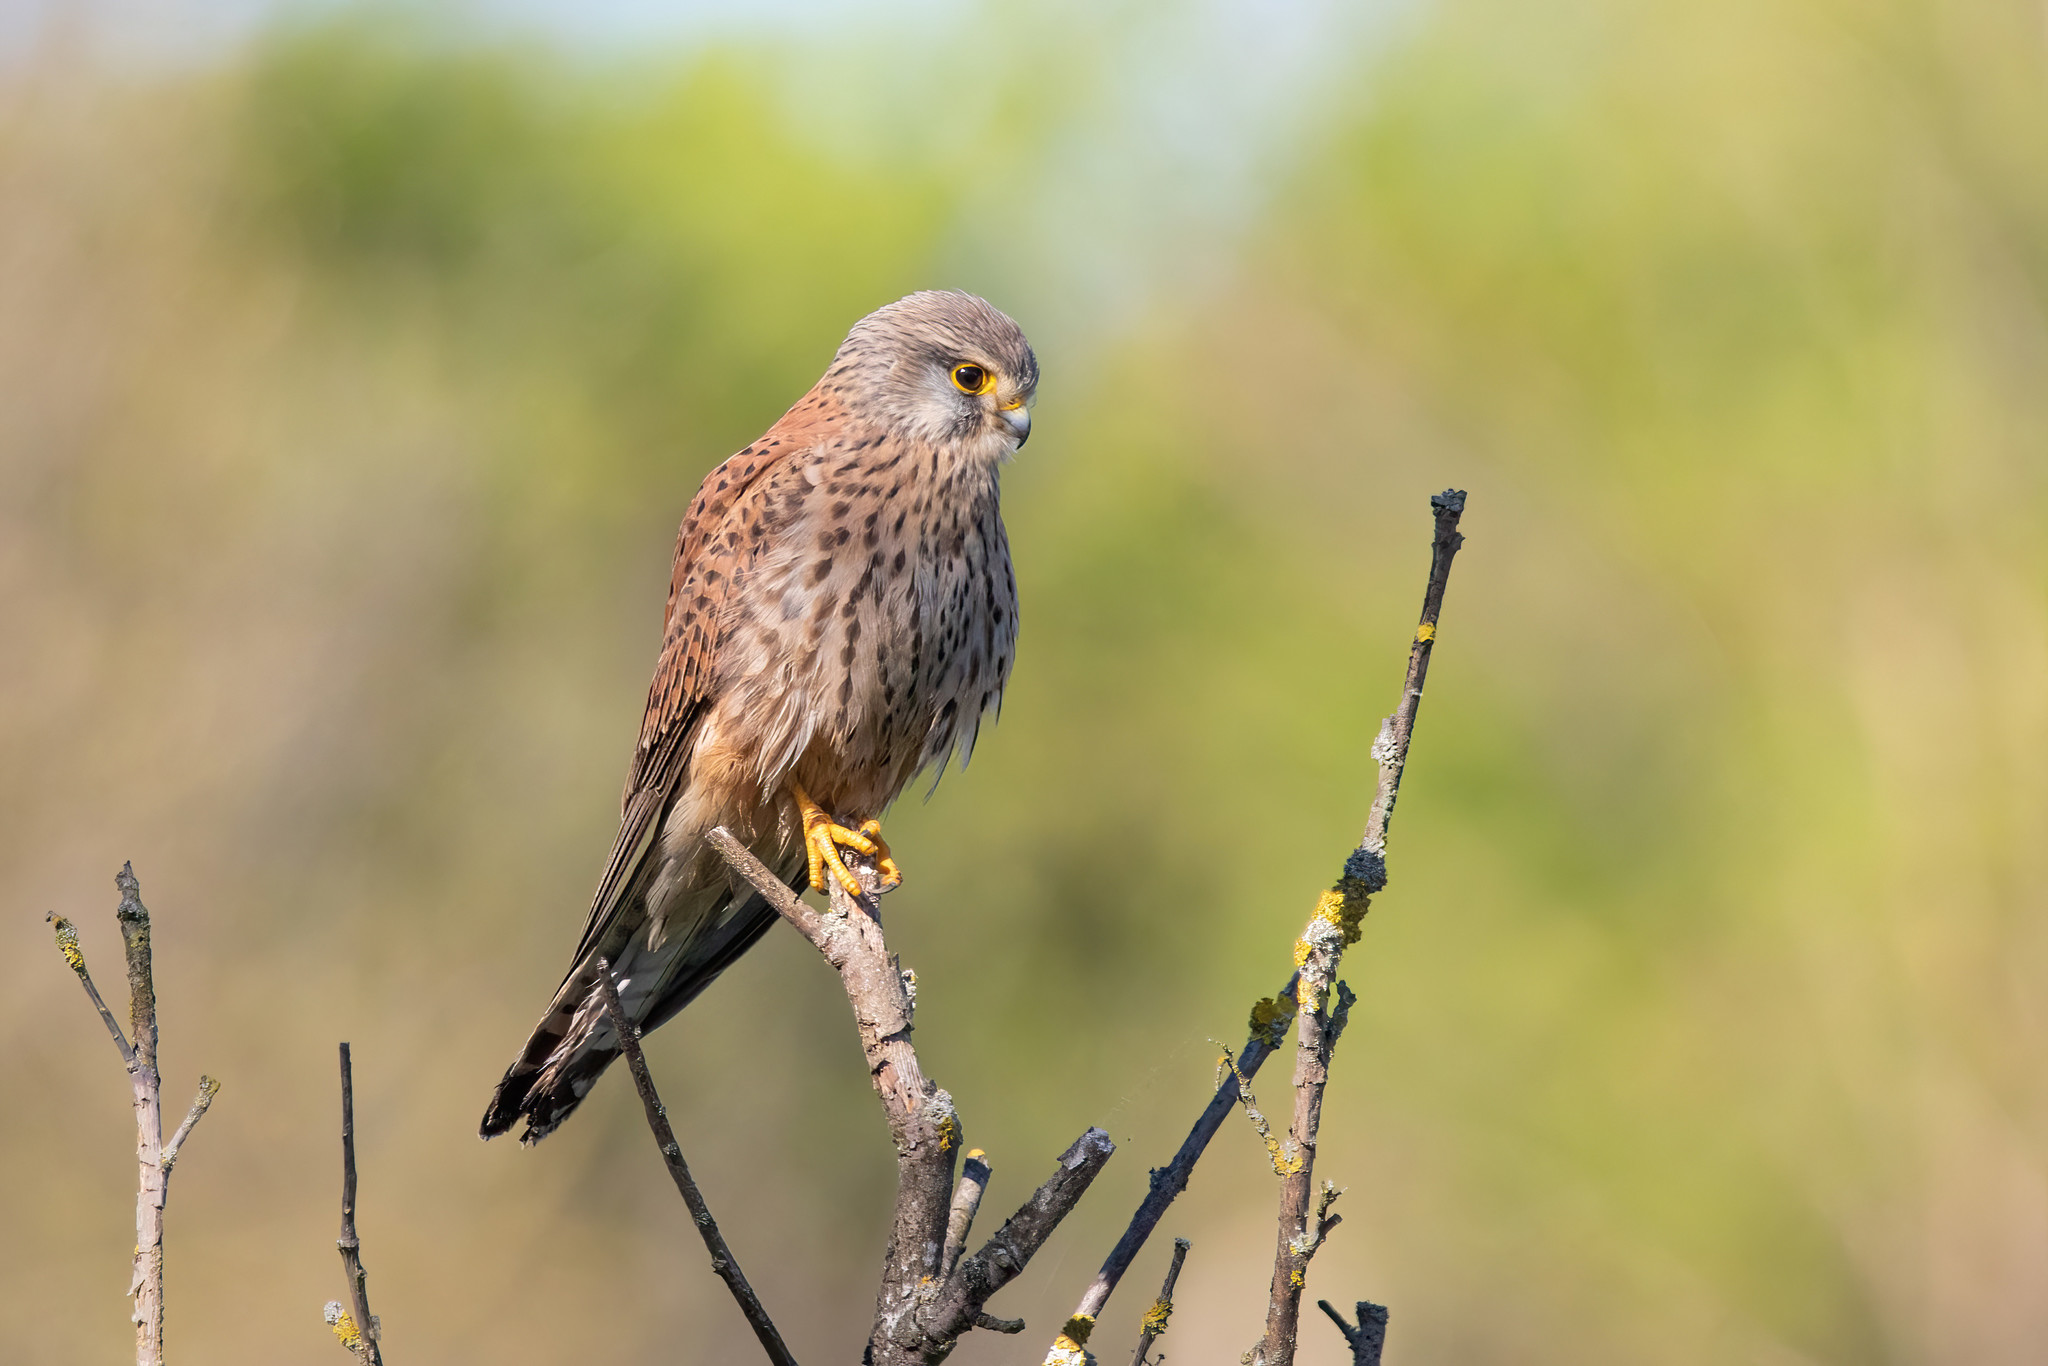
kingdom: Animalia
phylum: Chordata
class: Aves
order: Falconiformes
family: Falconidae
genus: Falco
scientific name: Falco tinnunculus
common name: Common kestrel
